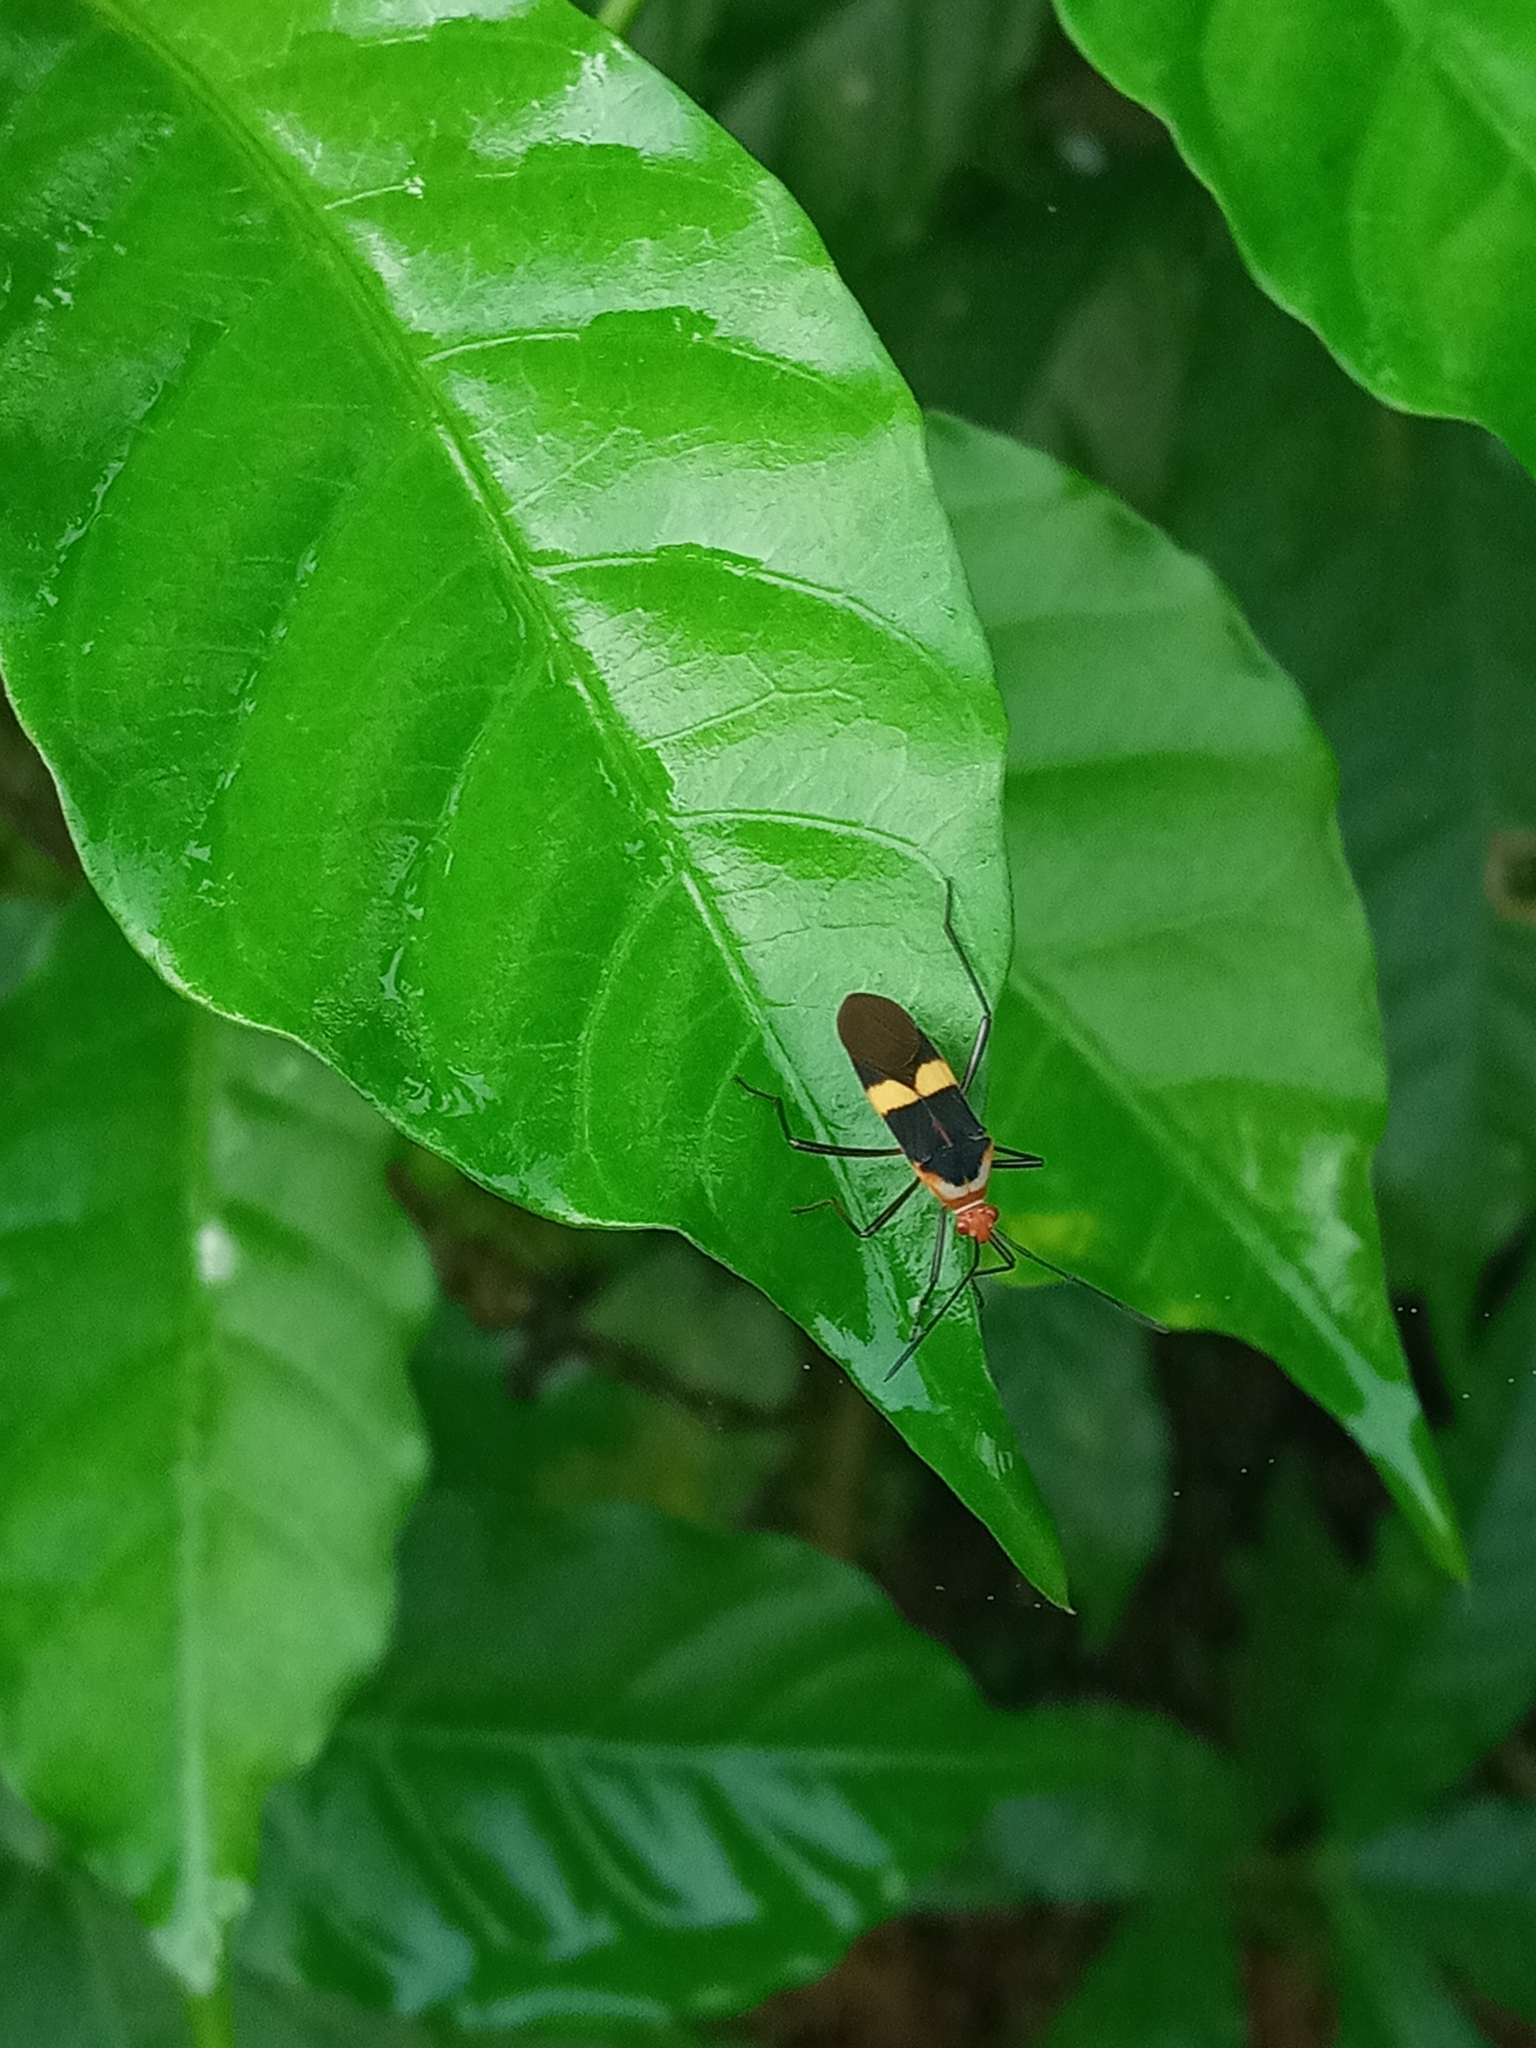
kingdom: Animalia
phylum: Arthropoda
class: Insecta
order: Hemiptera
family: Coreidae
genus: Hypselonotus
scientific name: Hypselonotus interruptus
